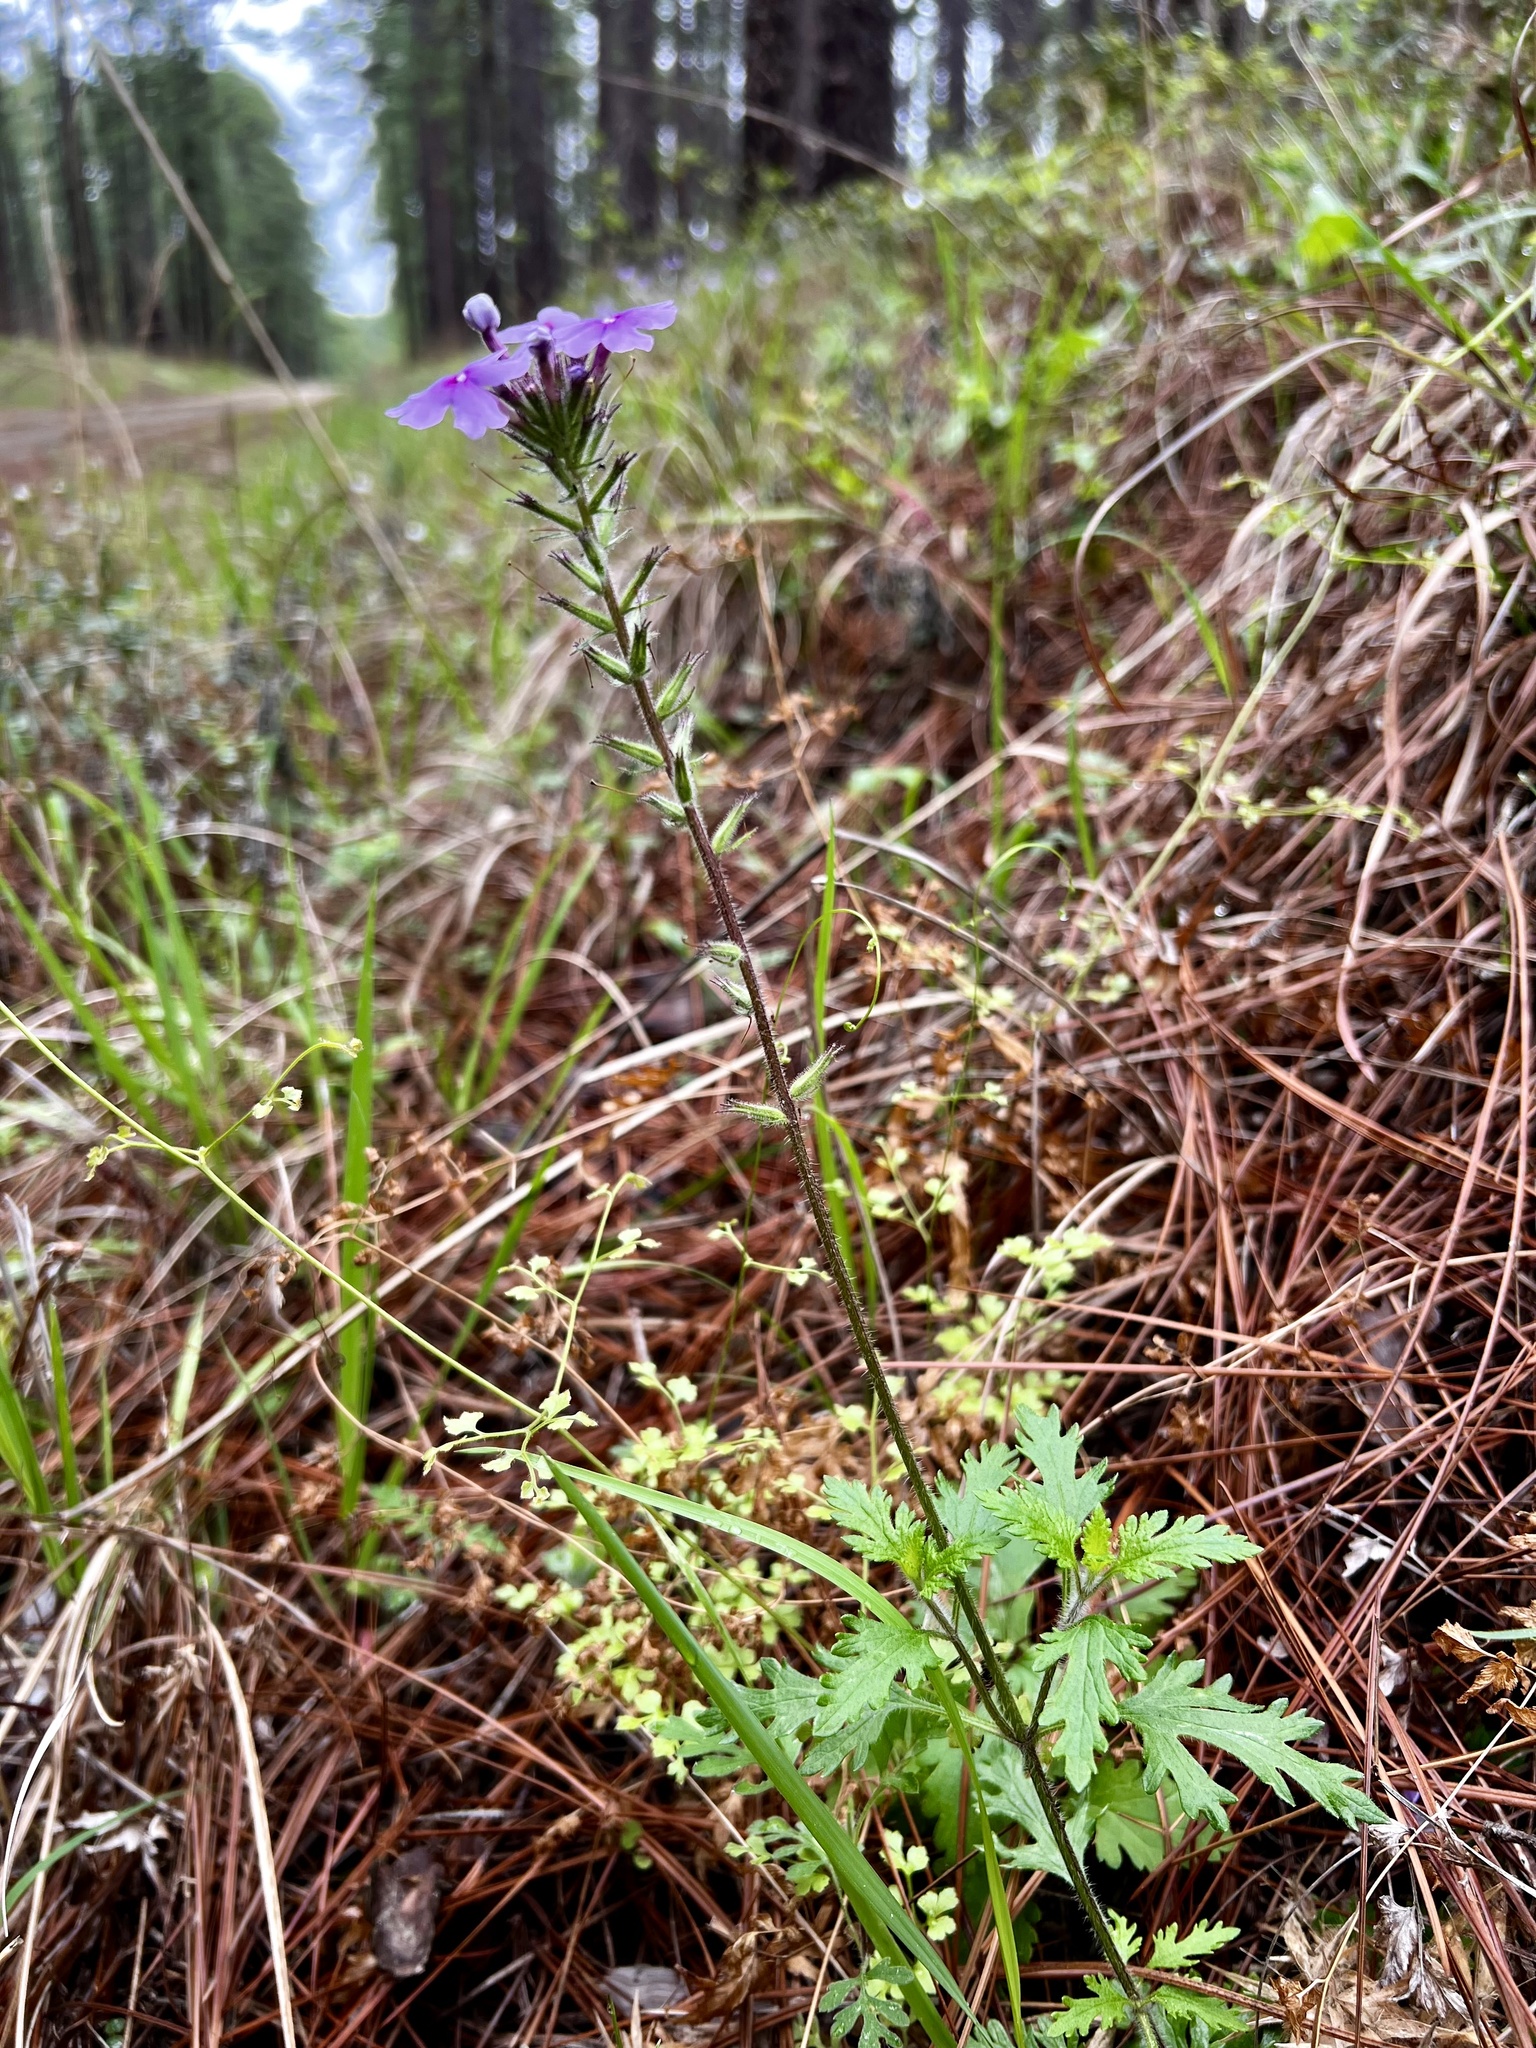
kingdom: Plantae
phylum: Tracheophyta
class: Magnoliopsida
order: Lamiales
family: Verbenaceae
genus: Verbena
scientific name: Verbena canadensis
